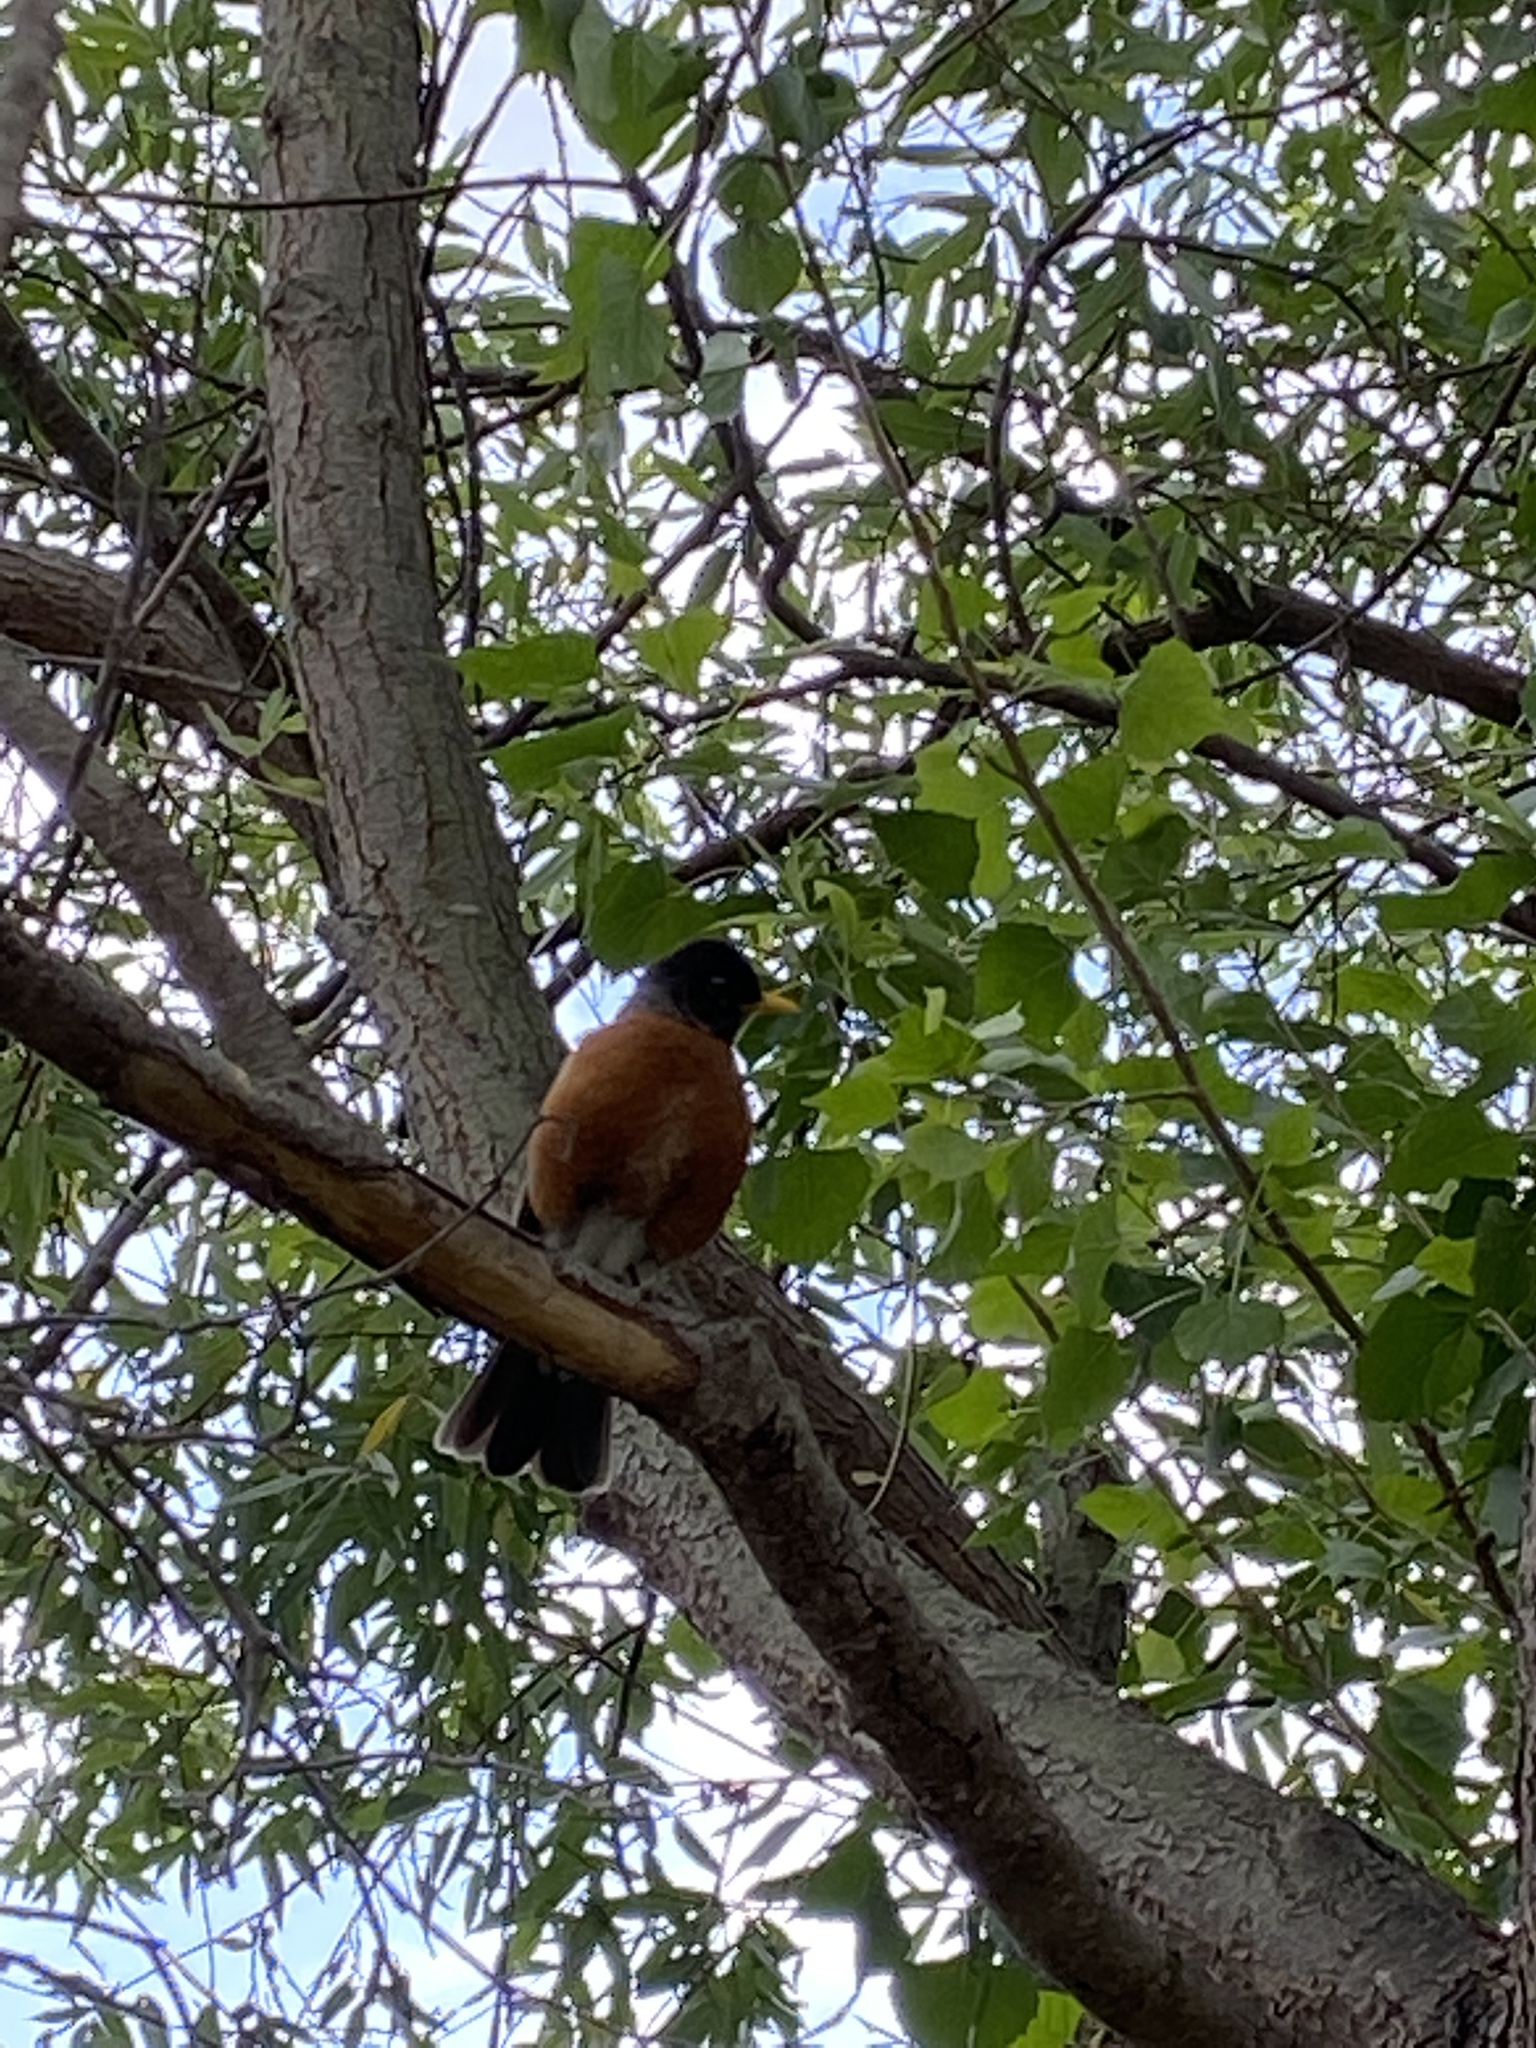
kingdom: Animalia
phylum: Chordata
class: Aves
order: Passeriformes
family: Turdidae
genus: Turdus
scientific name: Turdus migratorius
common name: American robin
